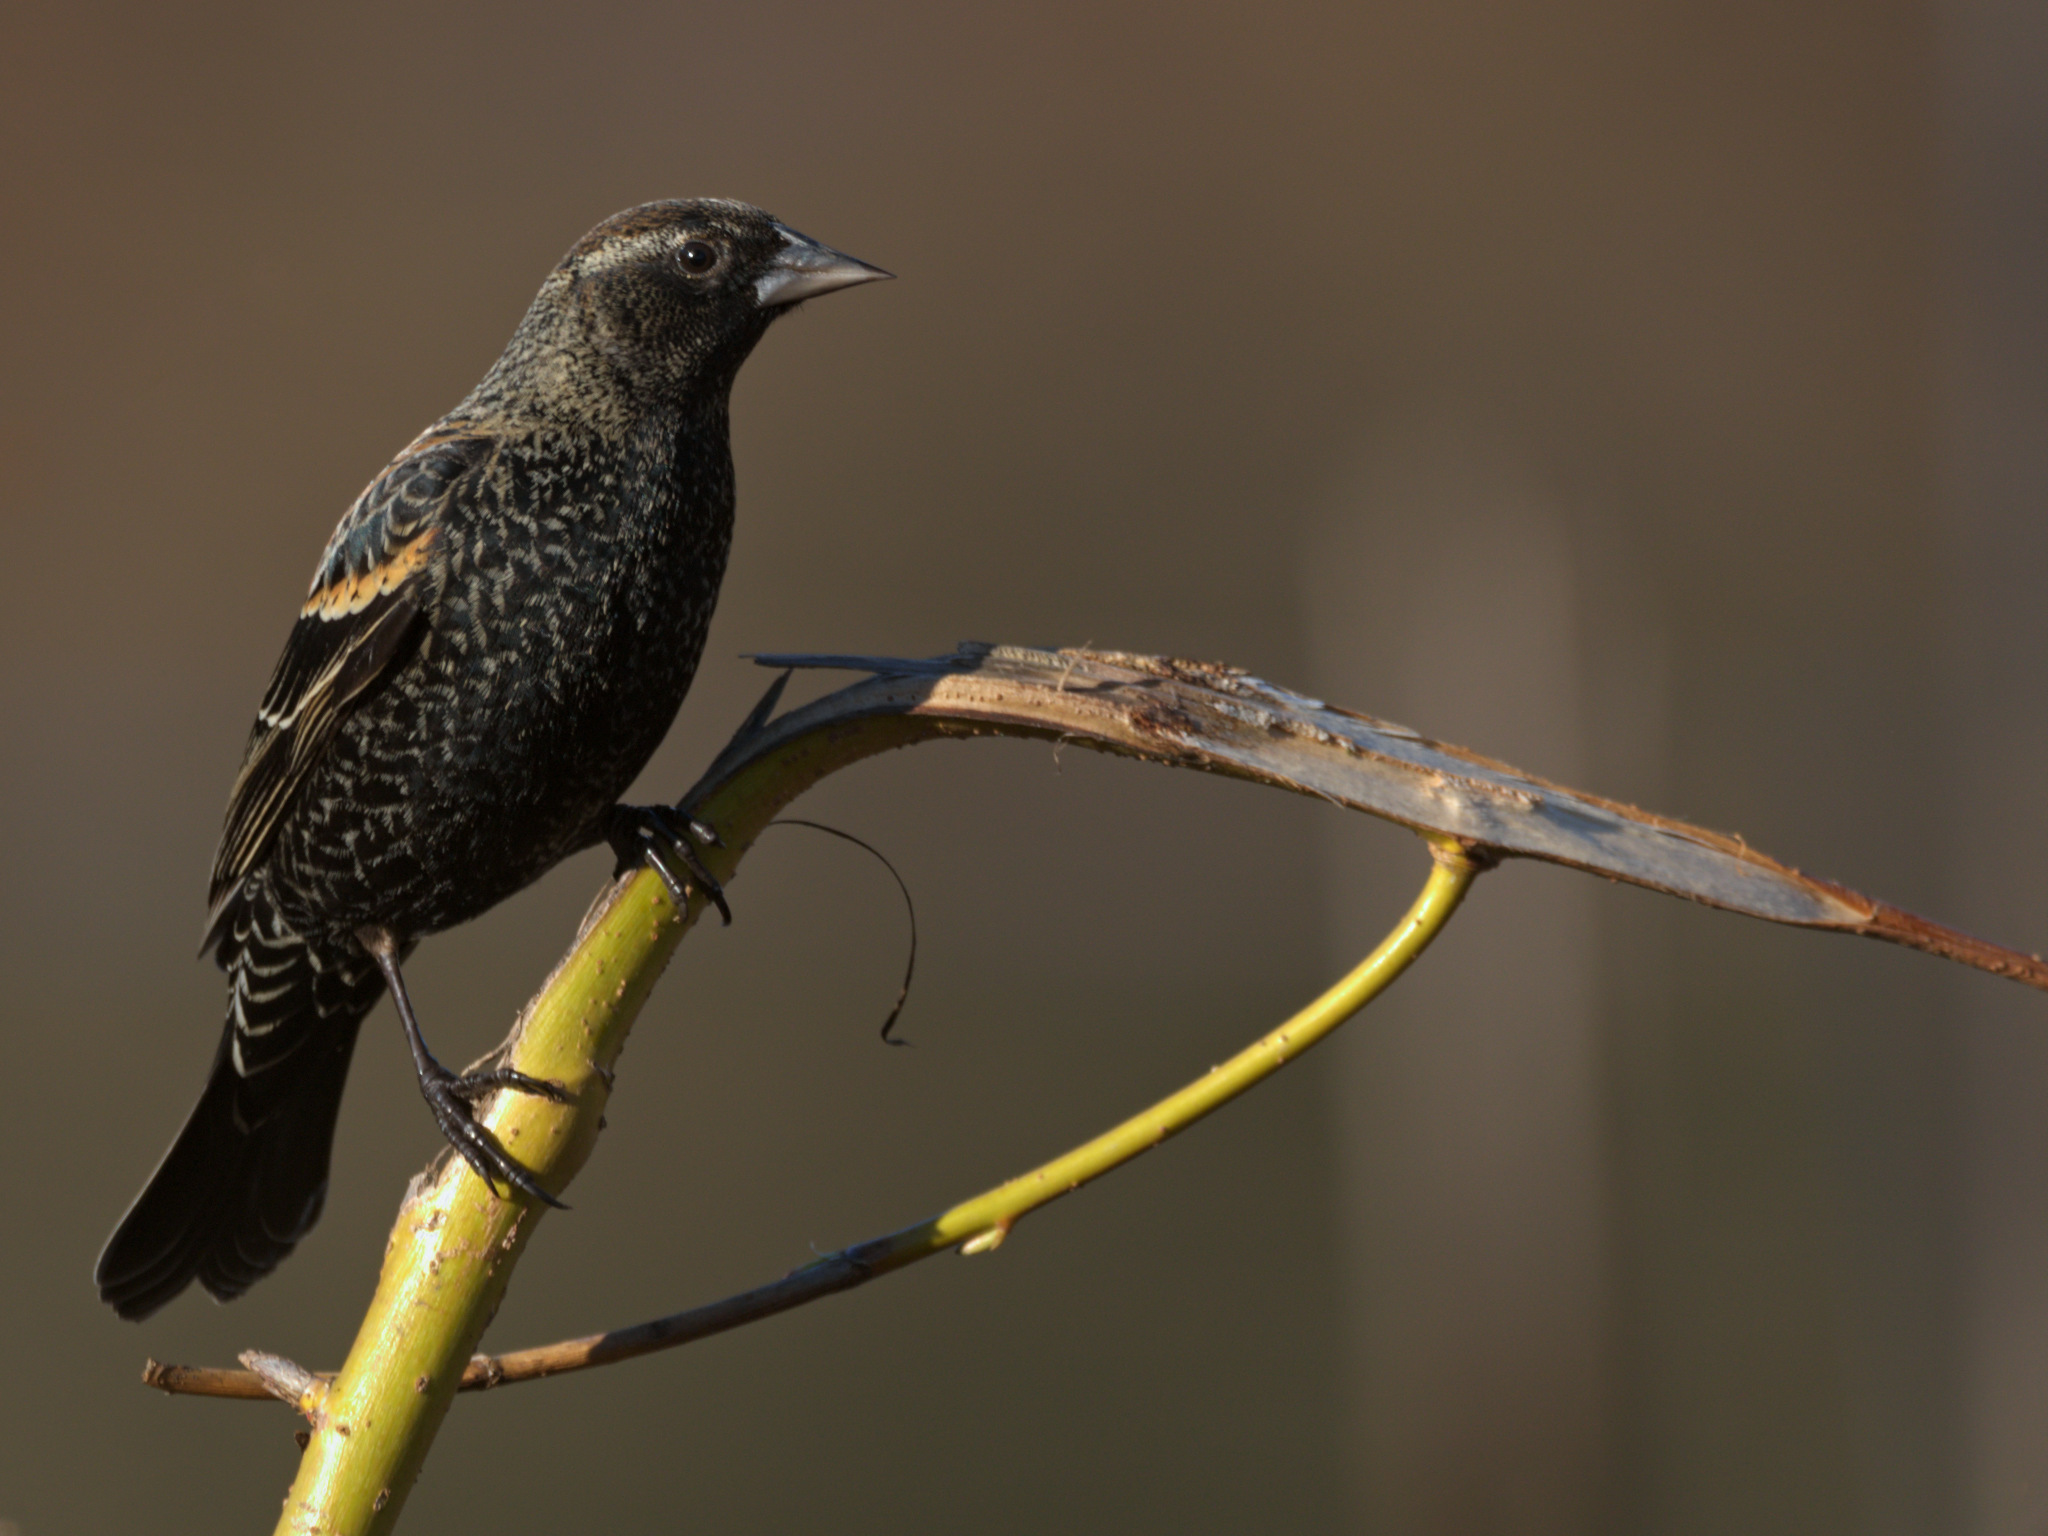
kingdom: Animalia
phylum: Chordata
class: Aves
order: Passeriformes
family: Icteridae
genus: Agelaius
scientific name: Agelaius phoeniceus
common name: Red-winged blackbird
